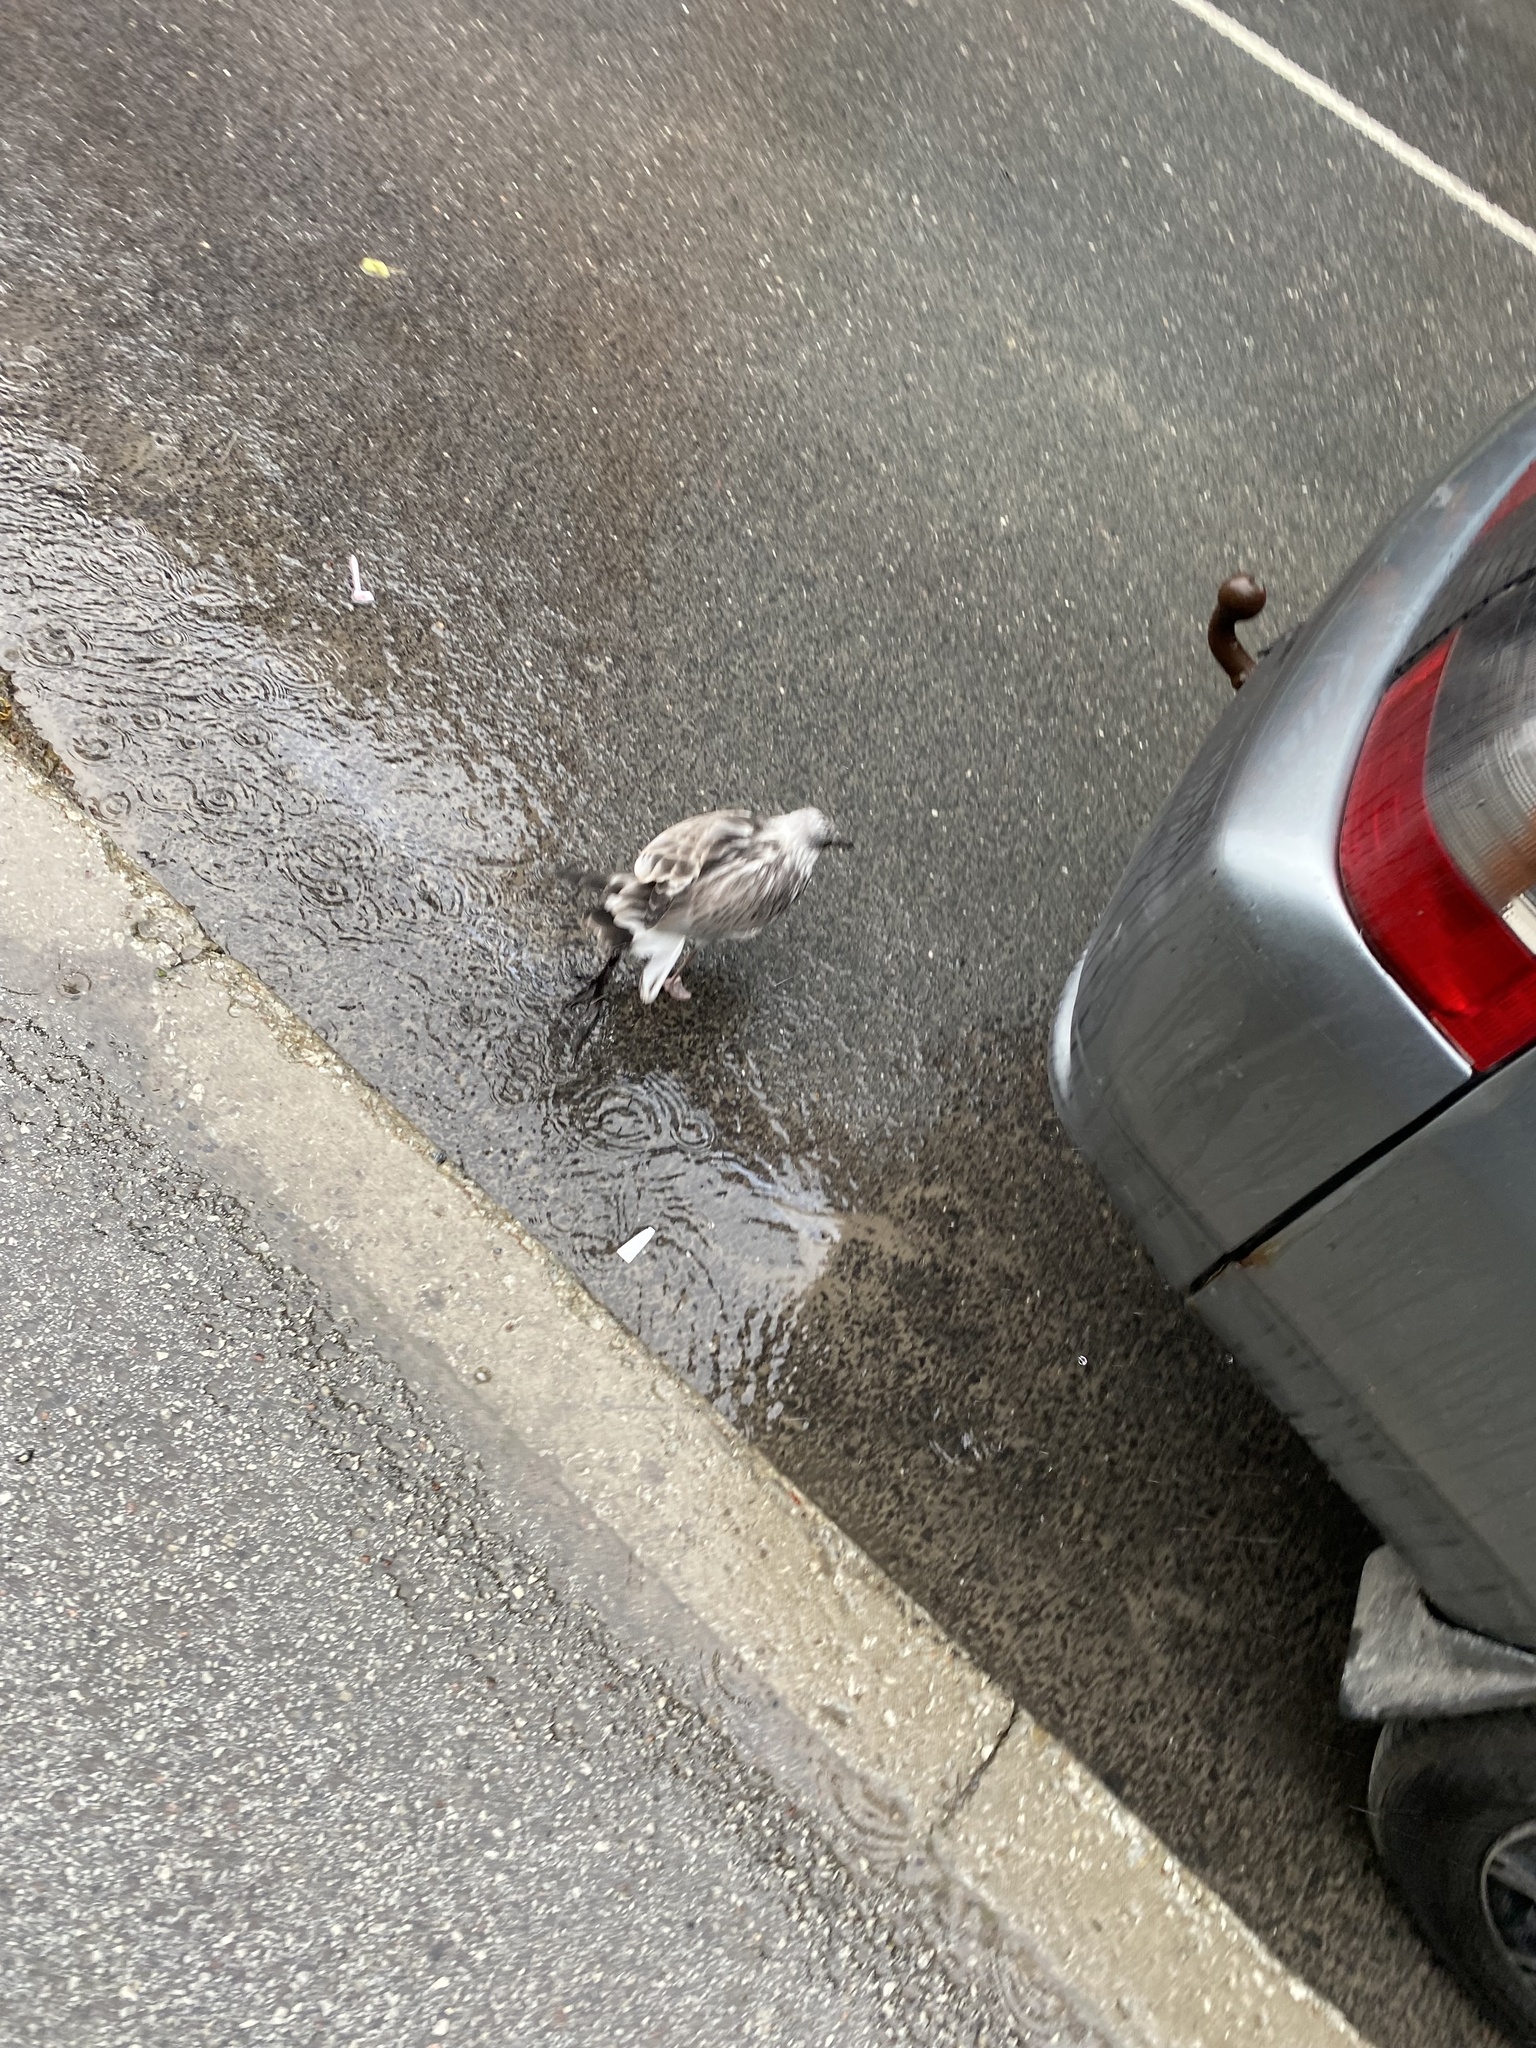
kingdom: Animalia
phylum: Chordata
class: Aves
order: Charadriiformes
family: Laridae
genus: Larus
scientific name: Larus canus
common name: Mew gull
